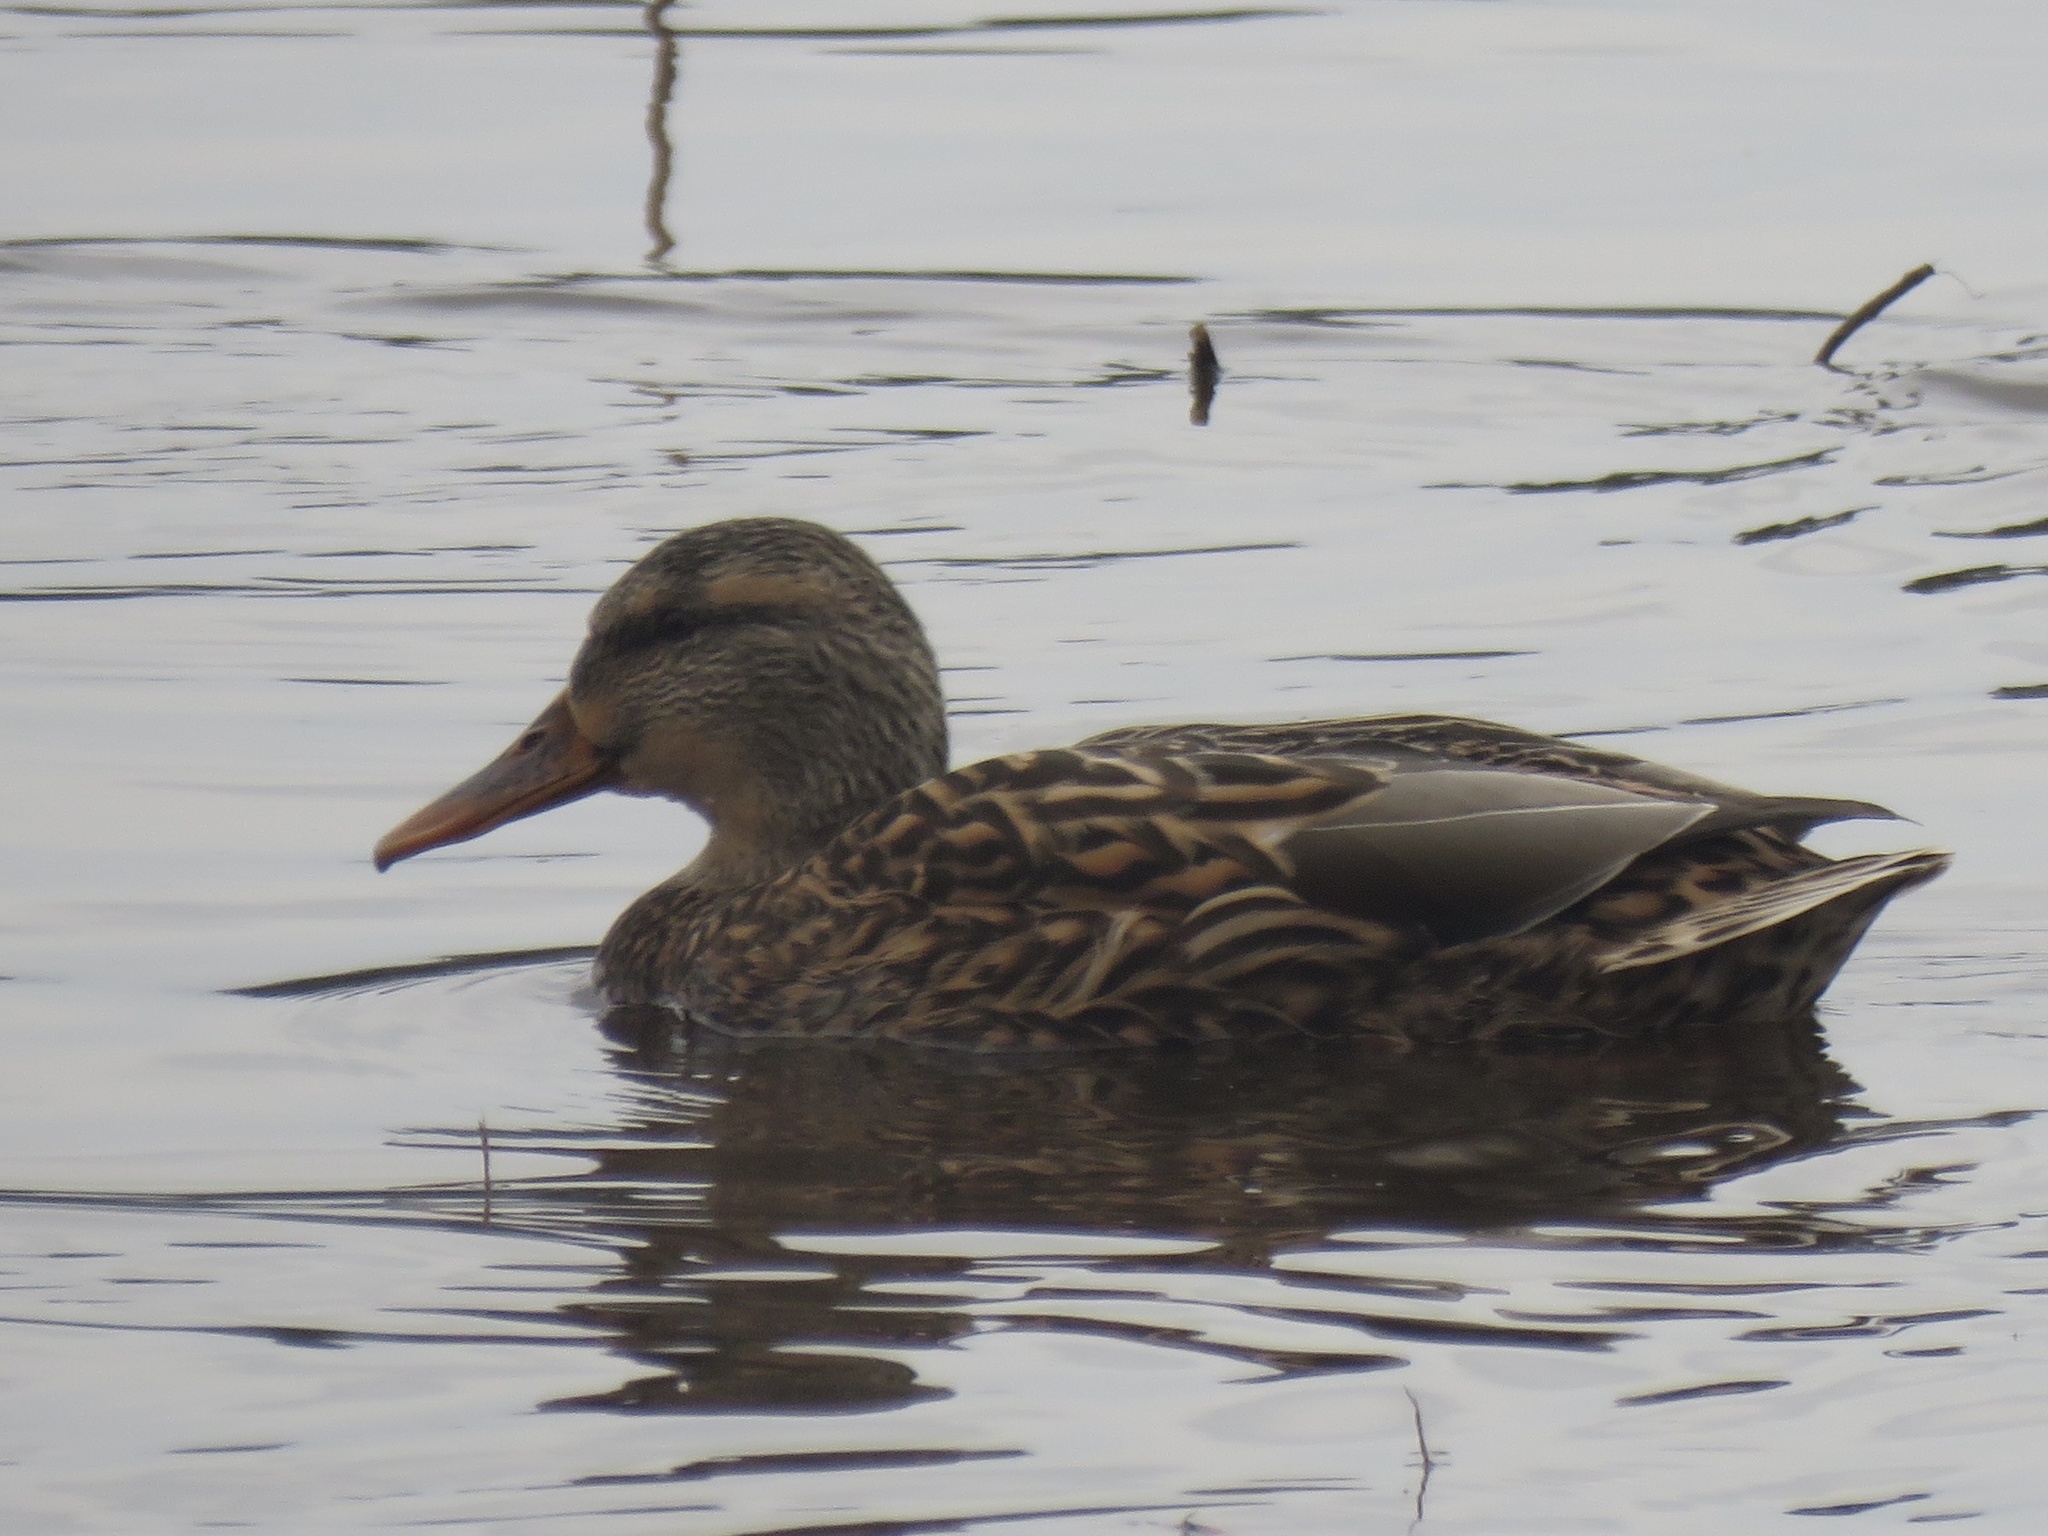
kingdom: Animalia
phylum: Chordata
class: Aves
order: Anseriformes
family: Anatidae
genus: Anas
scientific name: Anas platyrhynchos
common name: Mallard
